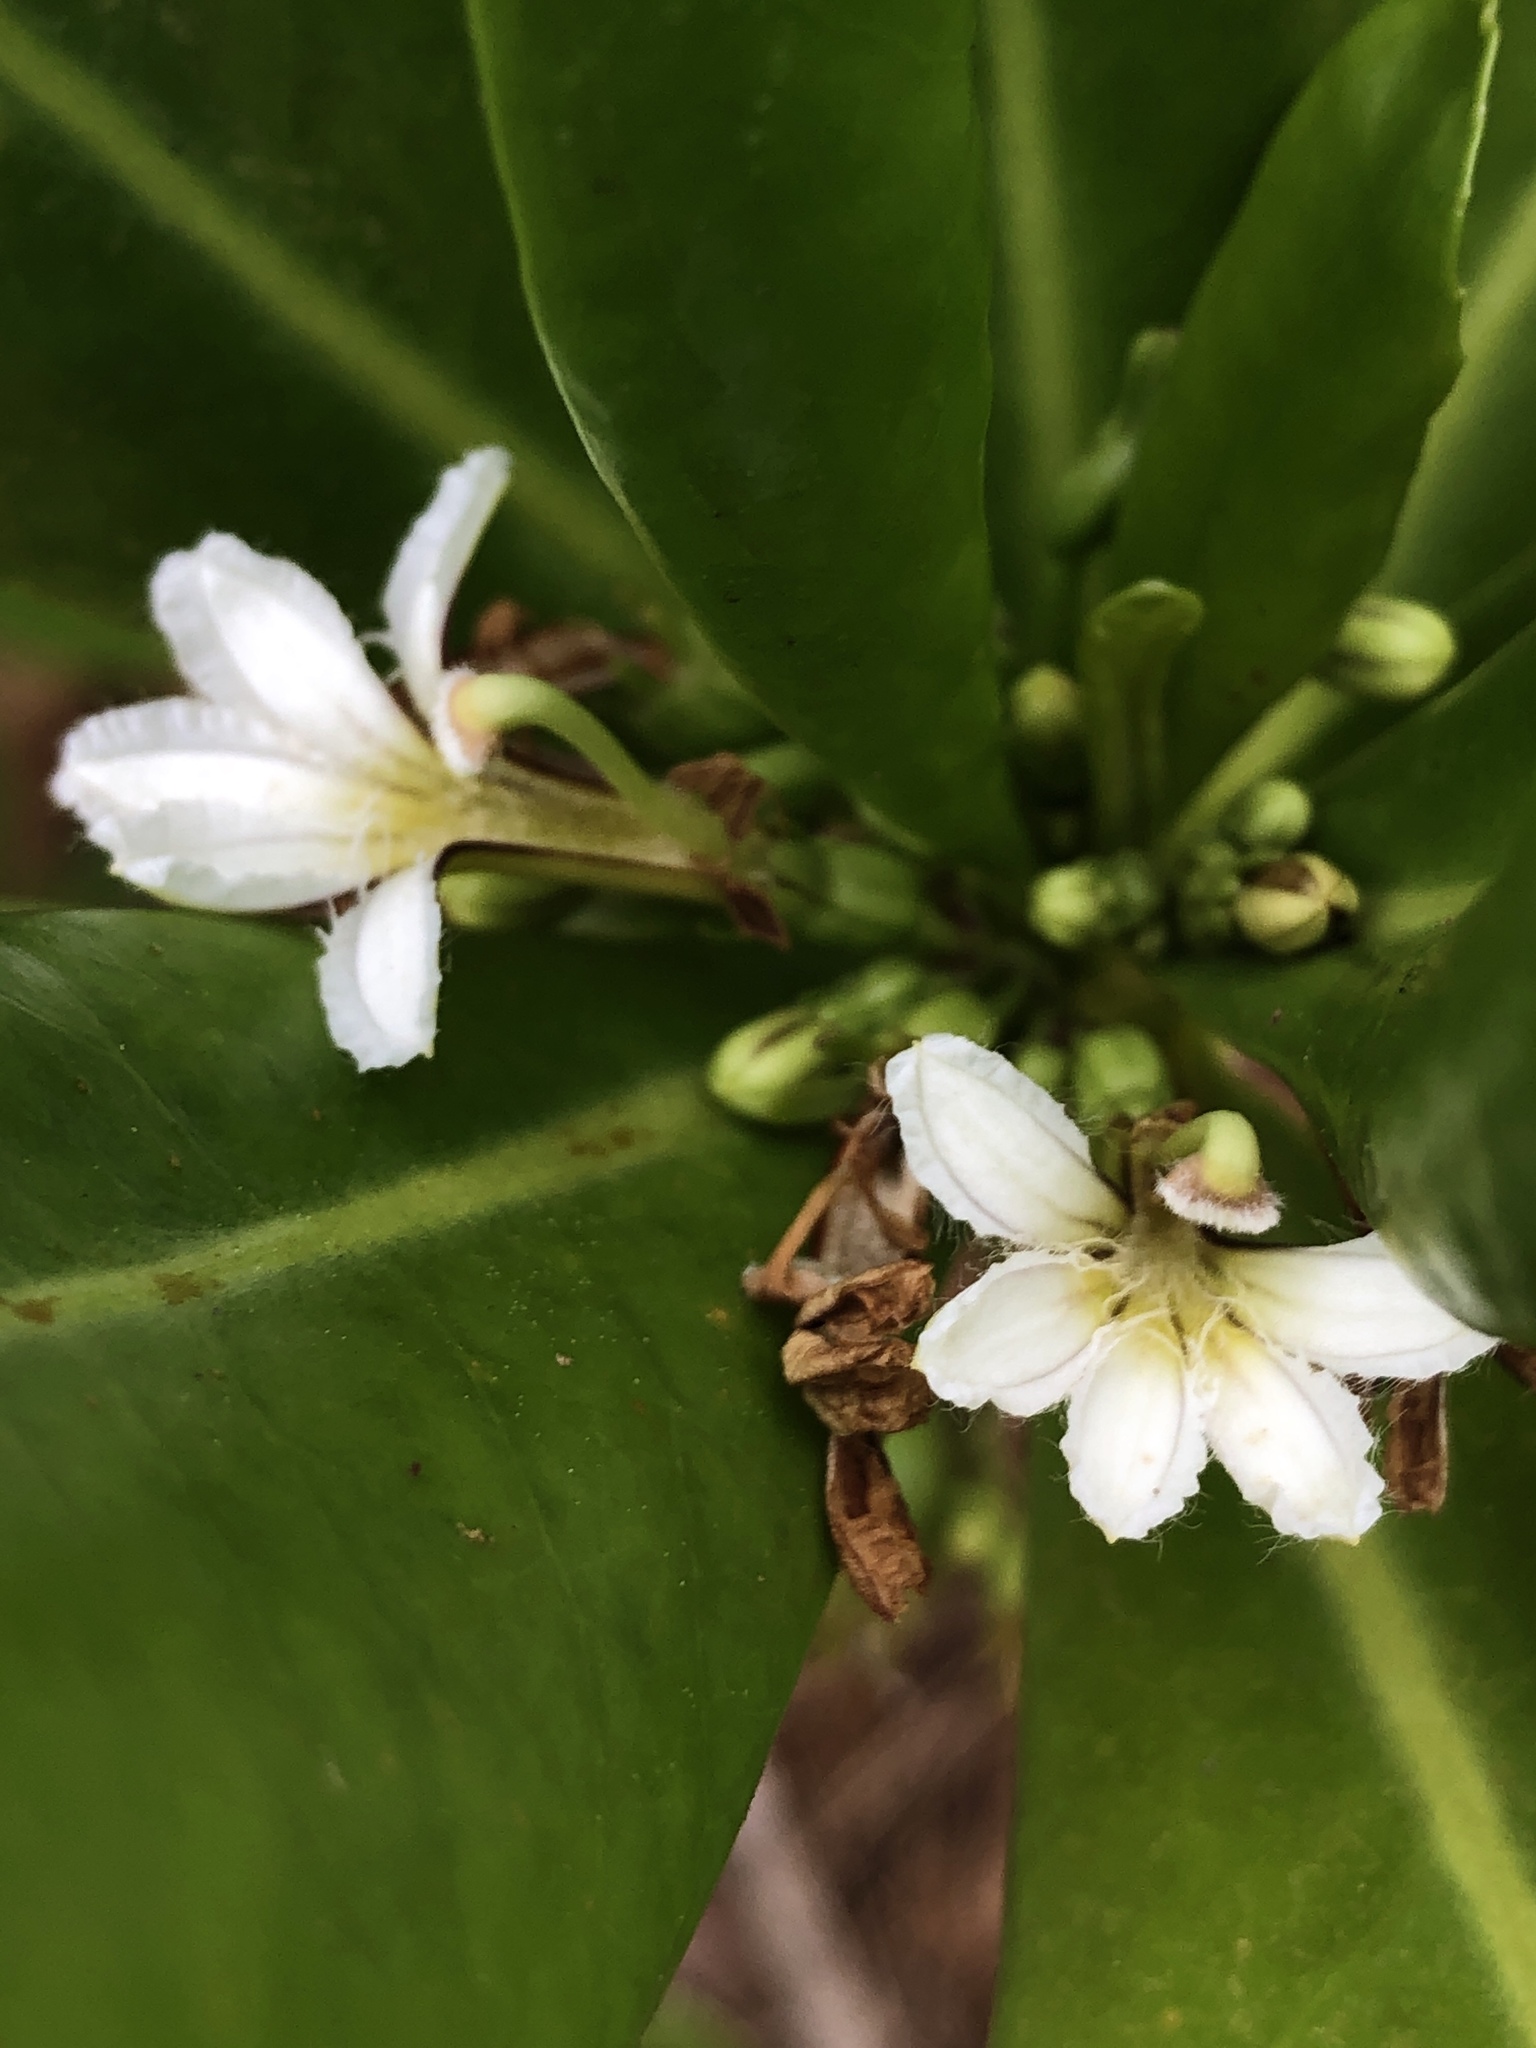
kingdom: Plantae
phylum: Tracheophyta
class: Magnoliopsida
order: Asterales
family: Goodeniaceae
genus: Scaevola
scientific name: Scaevola taccada
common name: Sea lettucetree
